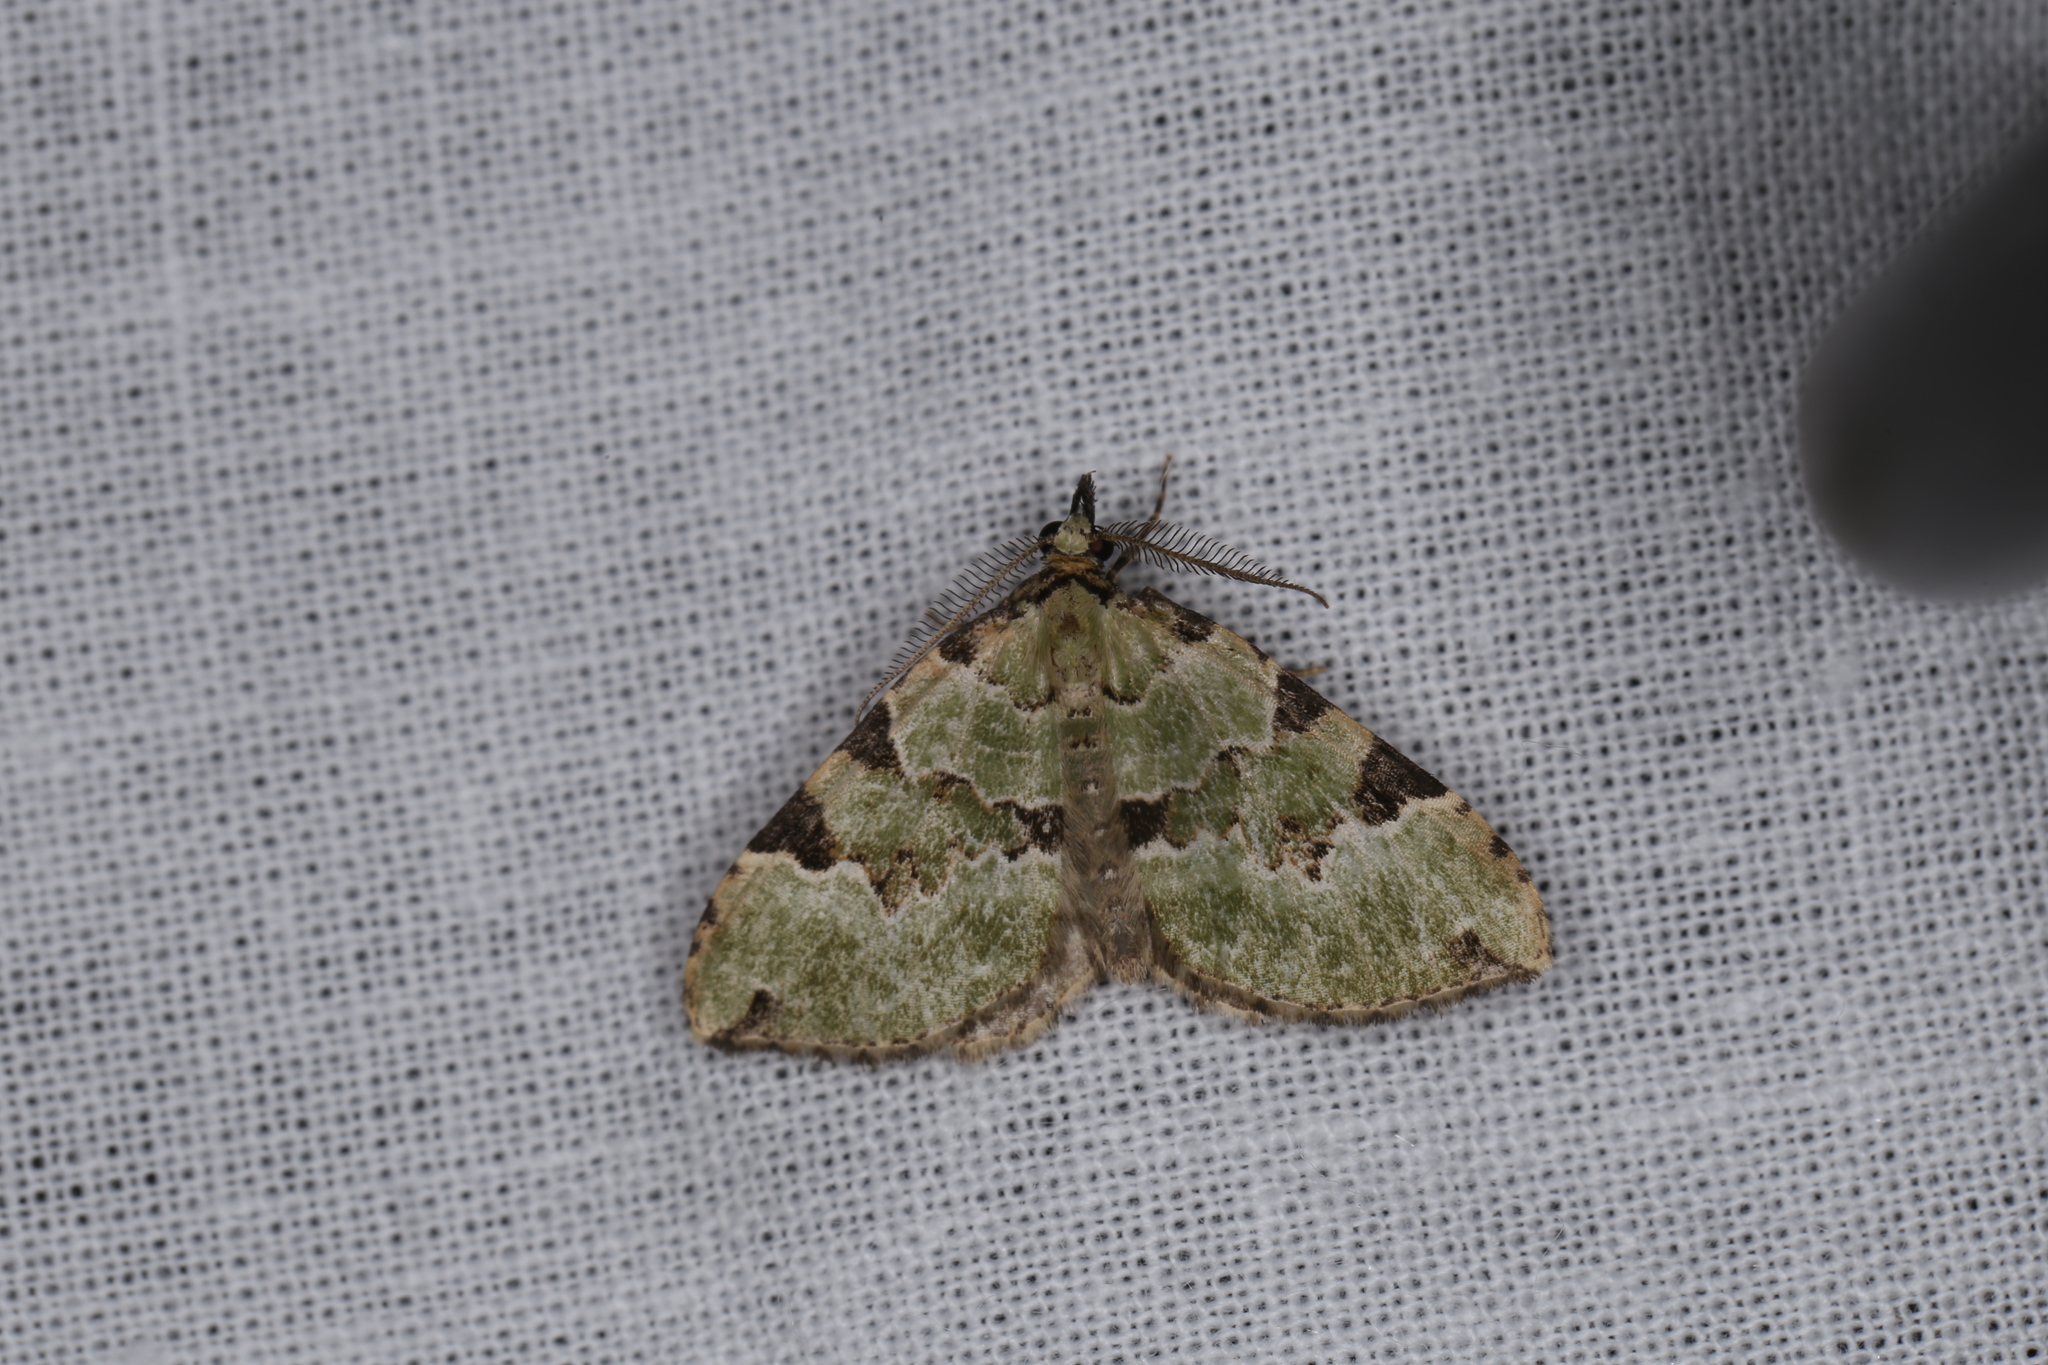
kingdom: Animalia
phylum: Arthropoda
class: Insecta
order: Lepidoptera
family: Geometridae
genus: Colostygia
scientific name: Colostygia pectinataria
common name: Green carpet
